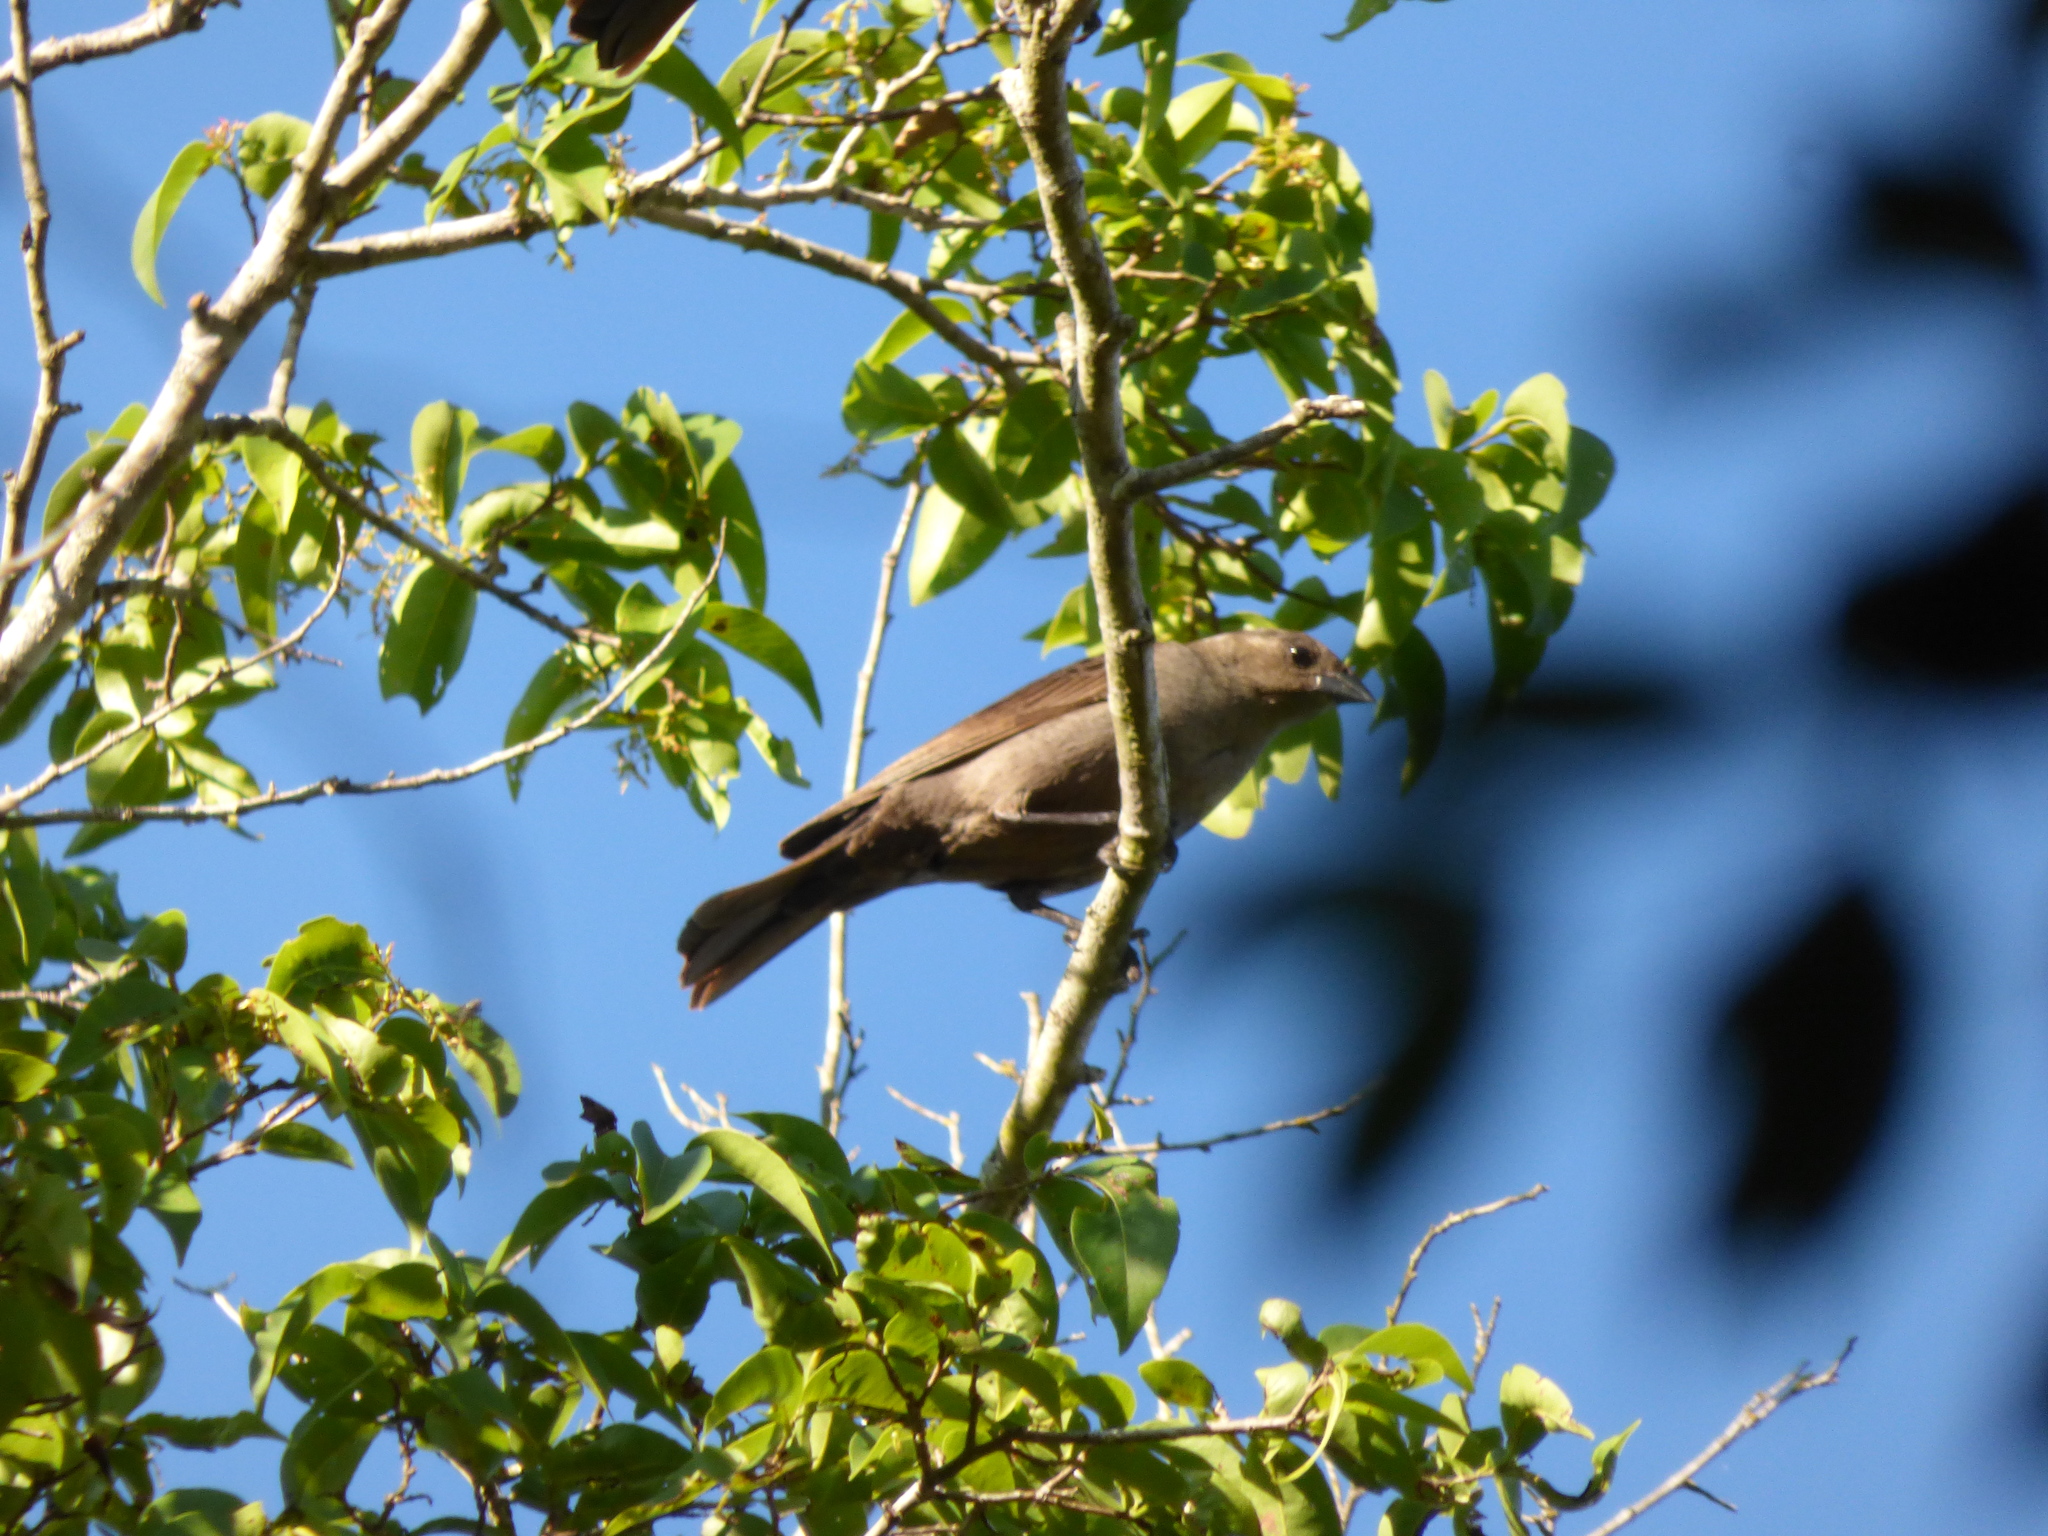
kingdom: Animalia
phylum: Chordata
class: Aves
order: Passeriformes
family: Icteridae
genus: Agelaioides
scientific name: Agelaioides badius
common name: Baywing
